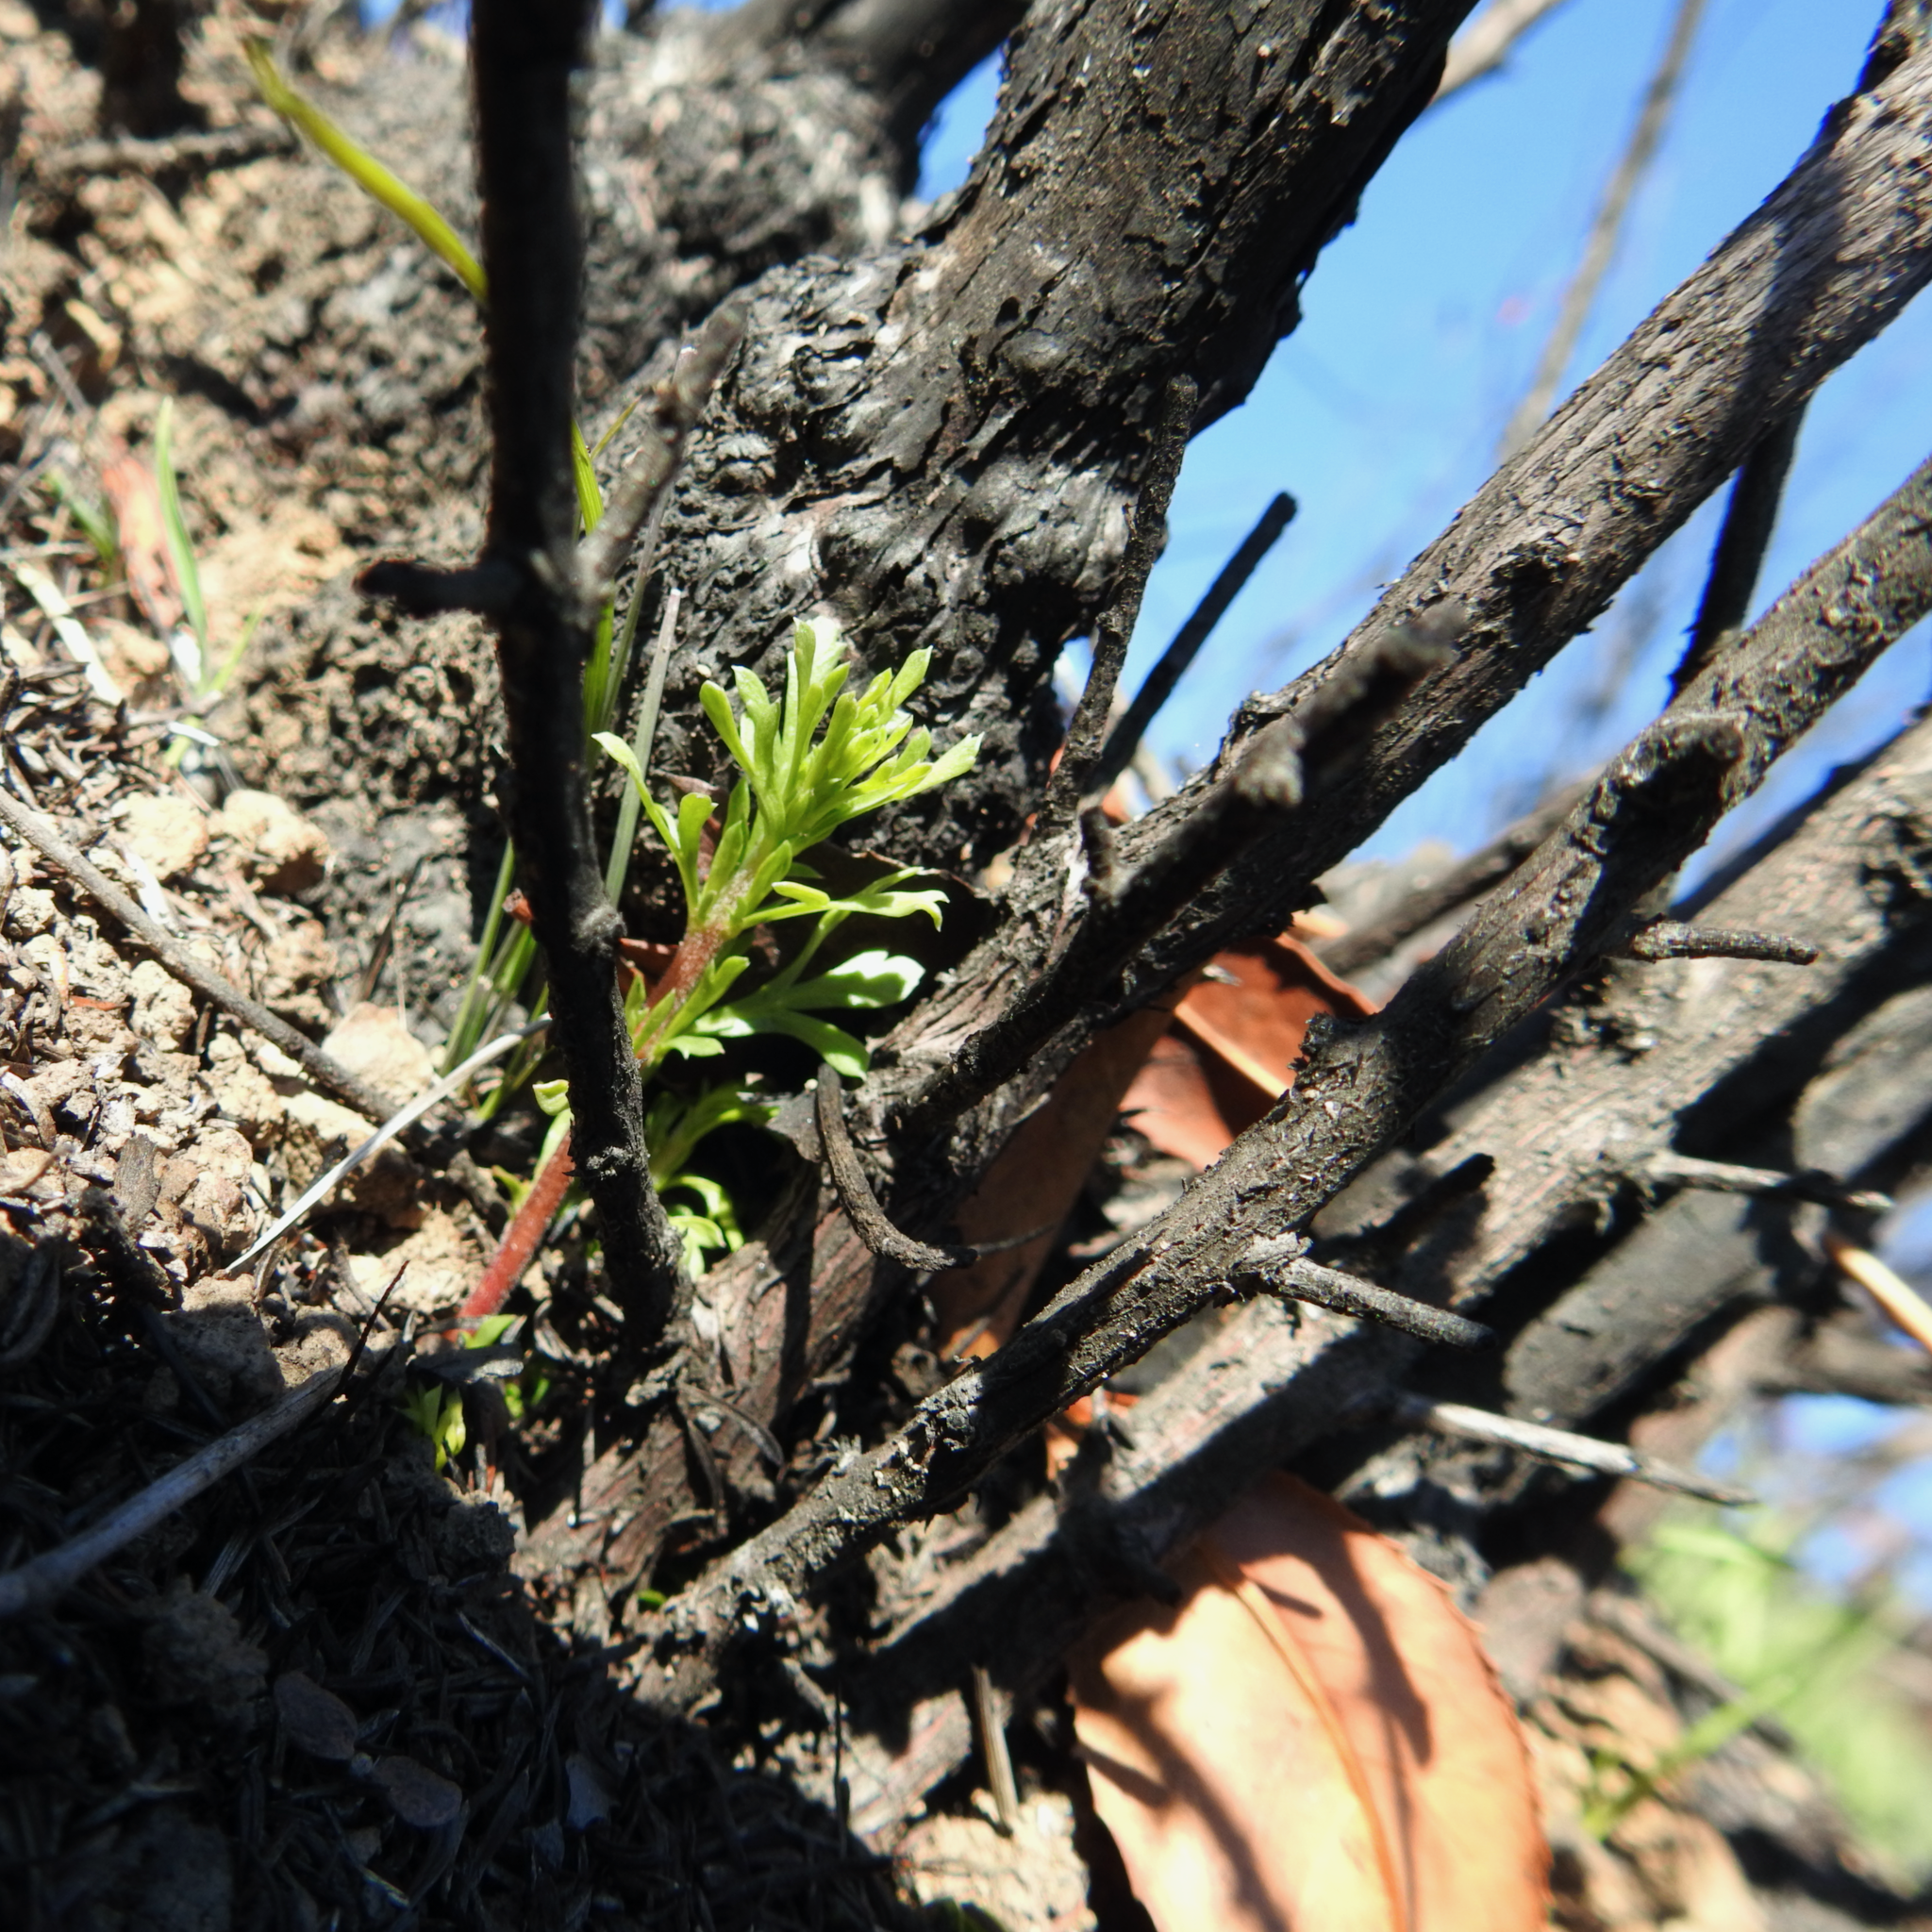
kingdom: Plantae
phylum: Tracheophyta
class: Magnoliopsida
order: Rosales
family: Rosaceae
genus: Adenostoma
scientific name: Adenostoma fasciculatum
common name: Chamise
